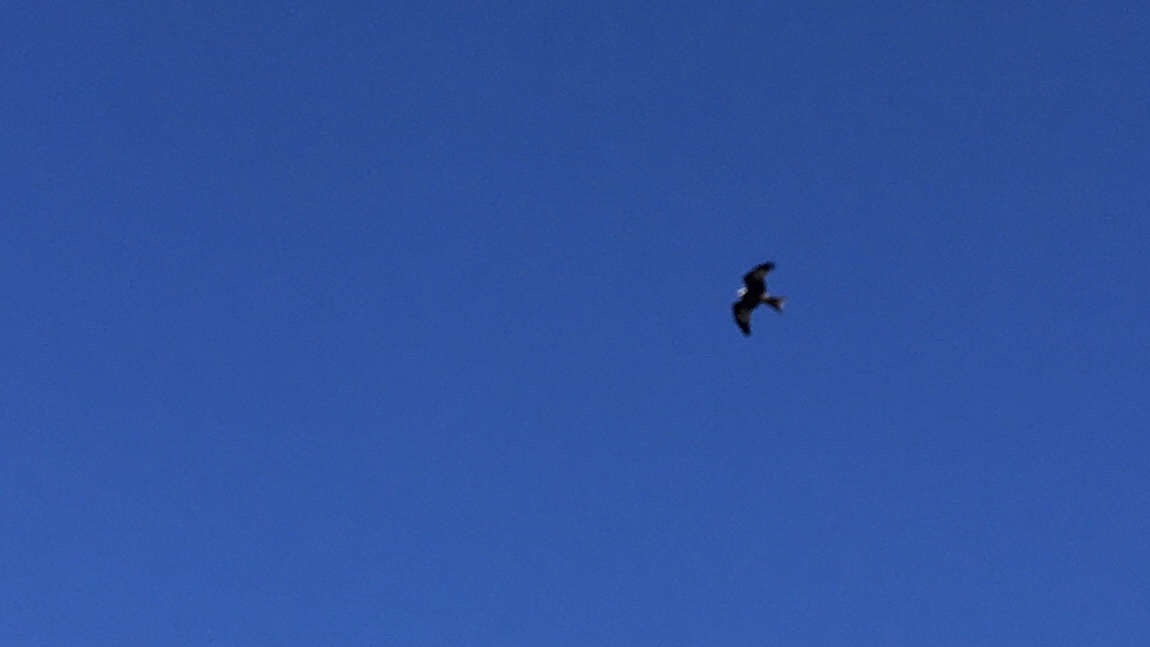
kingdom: Animalia
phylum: Chordata
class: Aves
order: Accipitriformes
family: Accipitridae
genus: Milvus
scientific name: Milvus milvus
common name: Red kite
